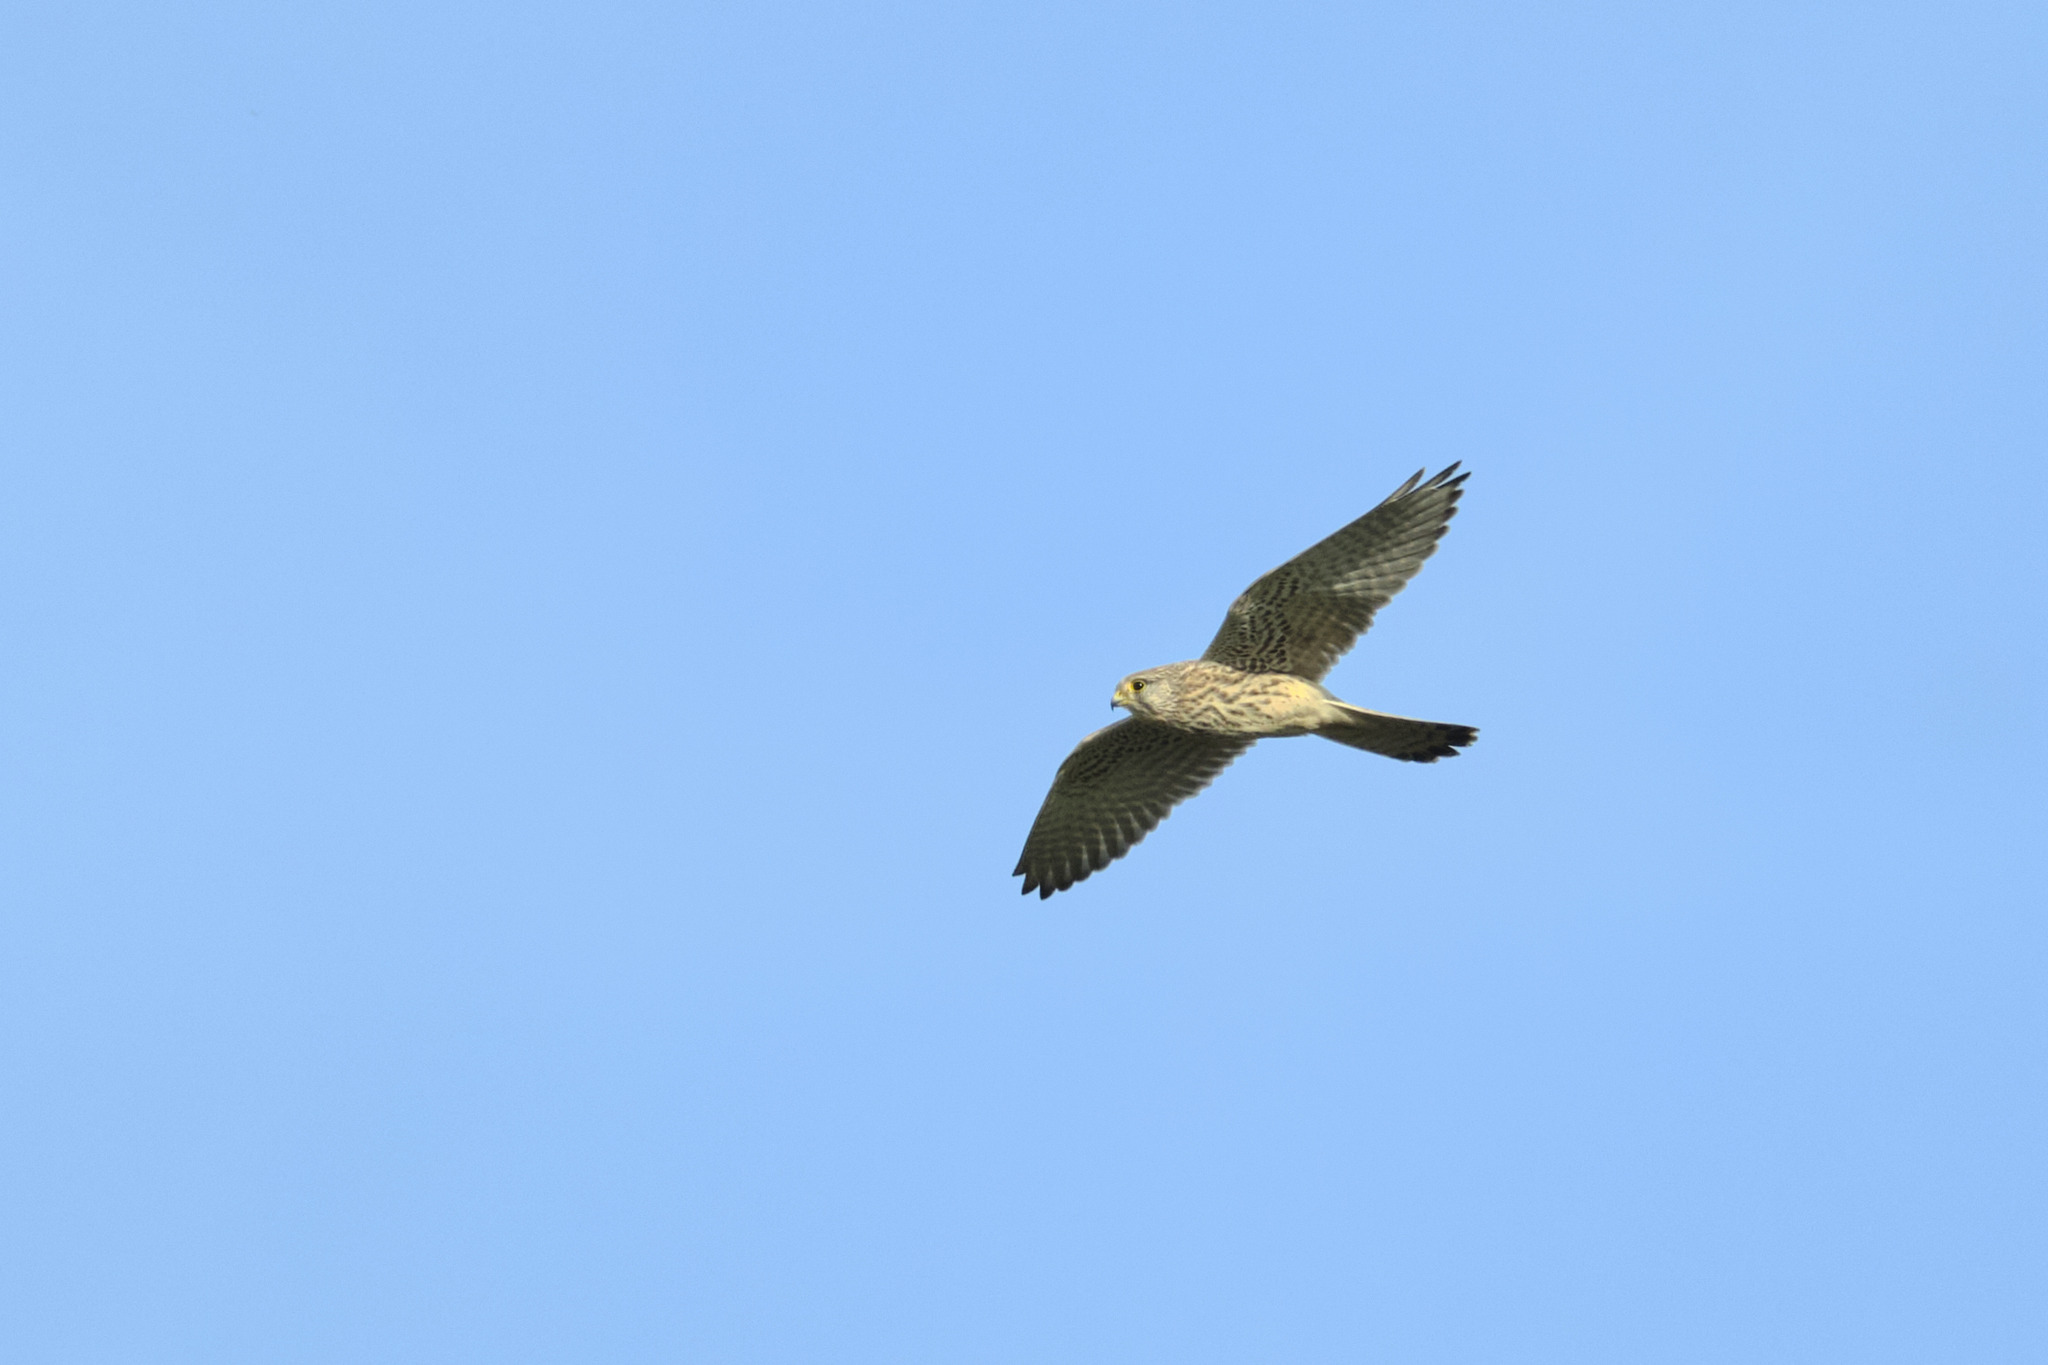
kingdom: Animalia
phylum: Chordata
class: Aves
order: Falconiformes
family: Falconidae
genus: Falco
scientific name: Falco tinnunculus
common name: Common kestrel
